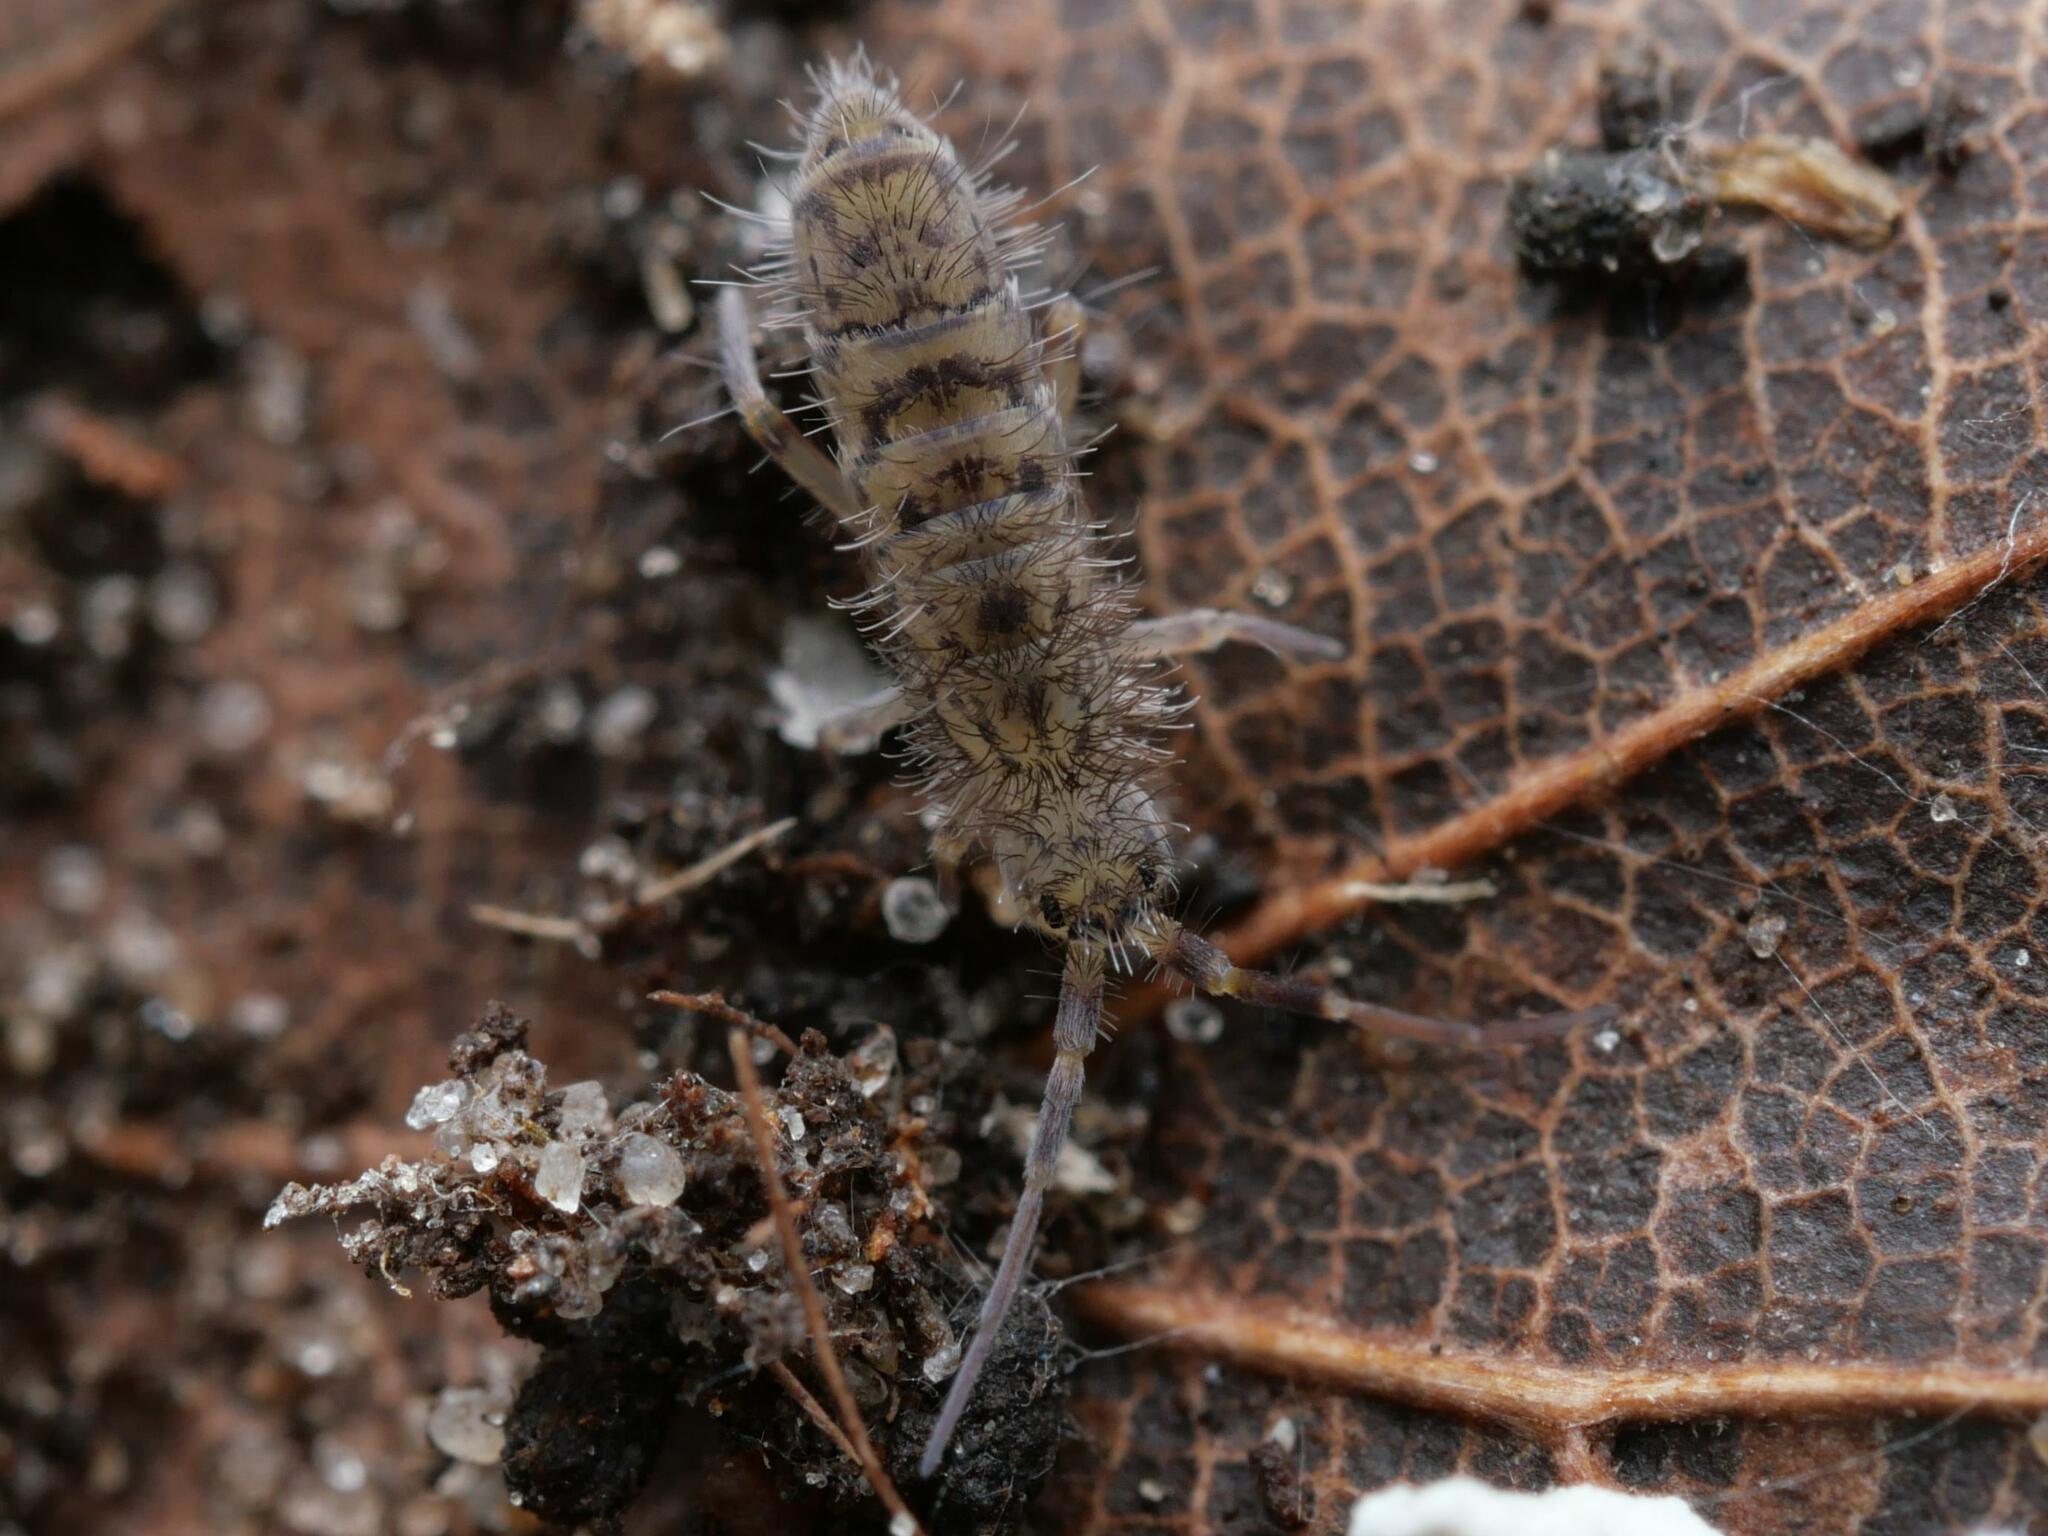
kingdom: Animalia
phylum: Arthropoda
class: Collembola
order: Entomobryomorpha
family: Orchesellidae
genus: Orchesella
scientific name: Orchesella villosa
